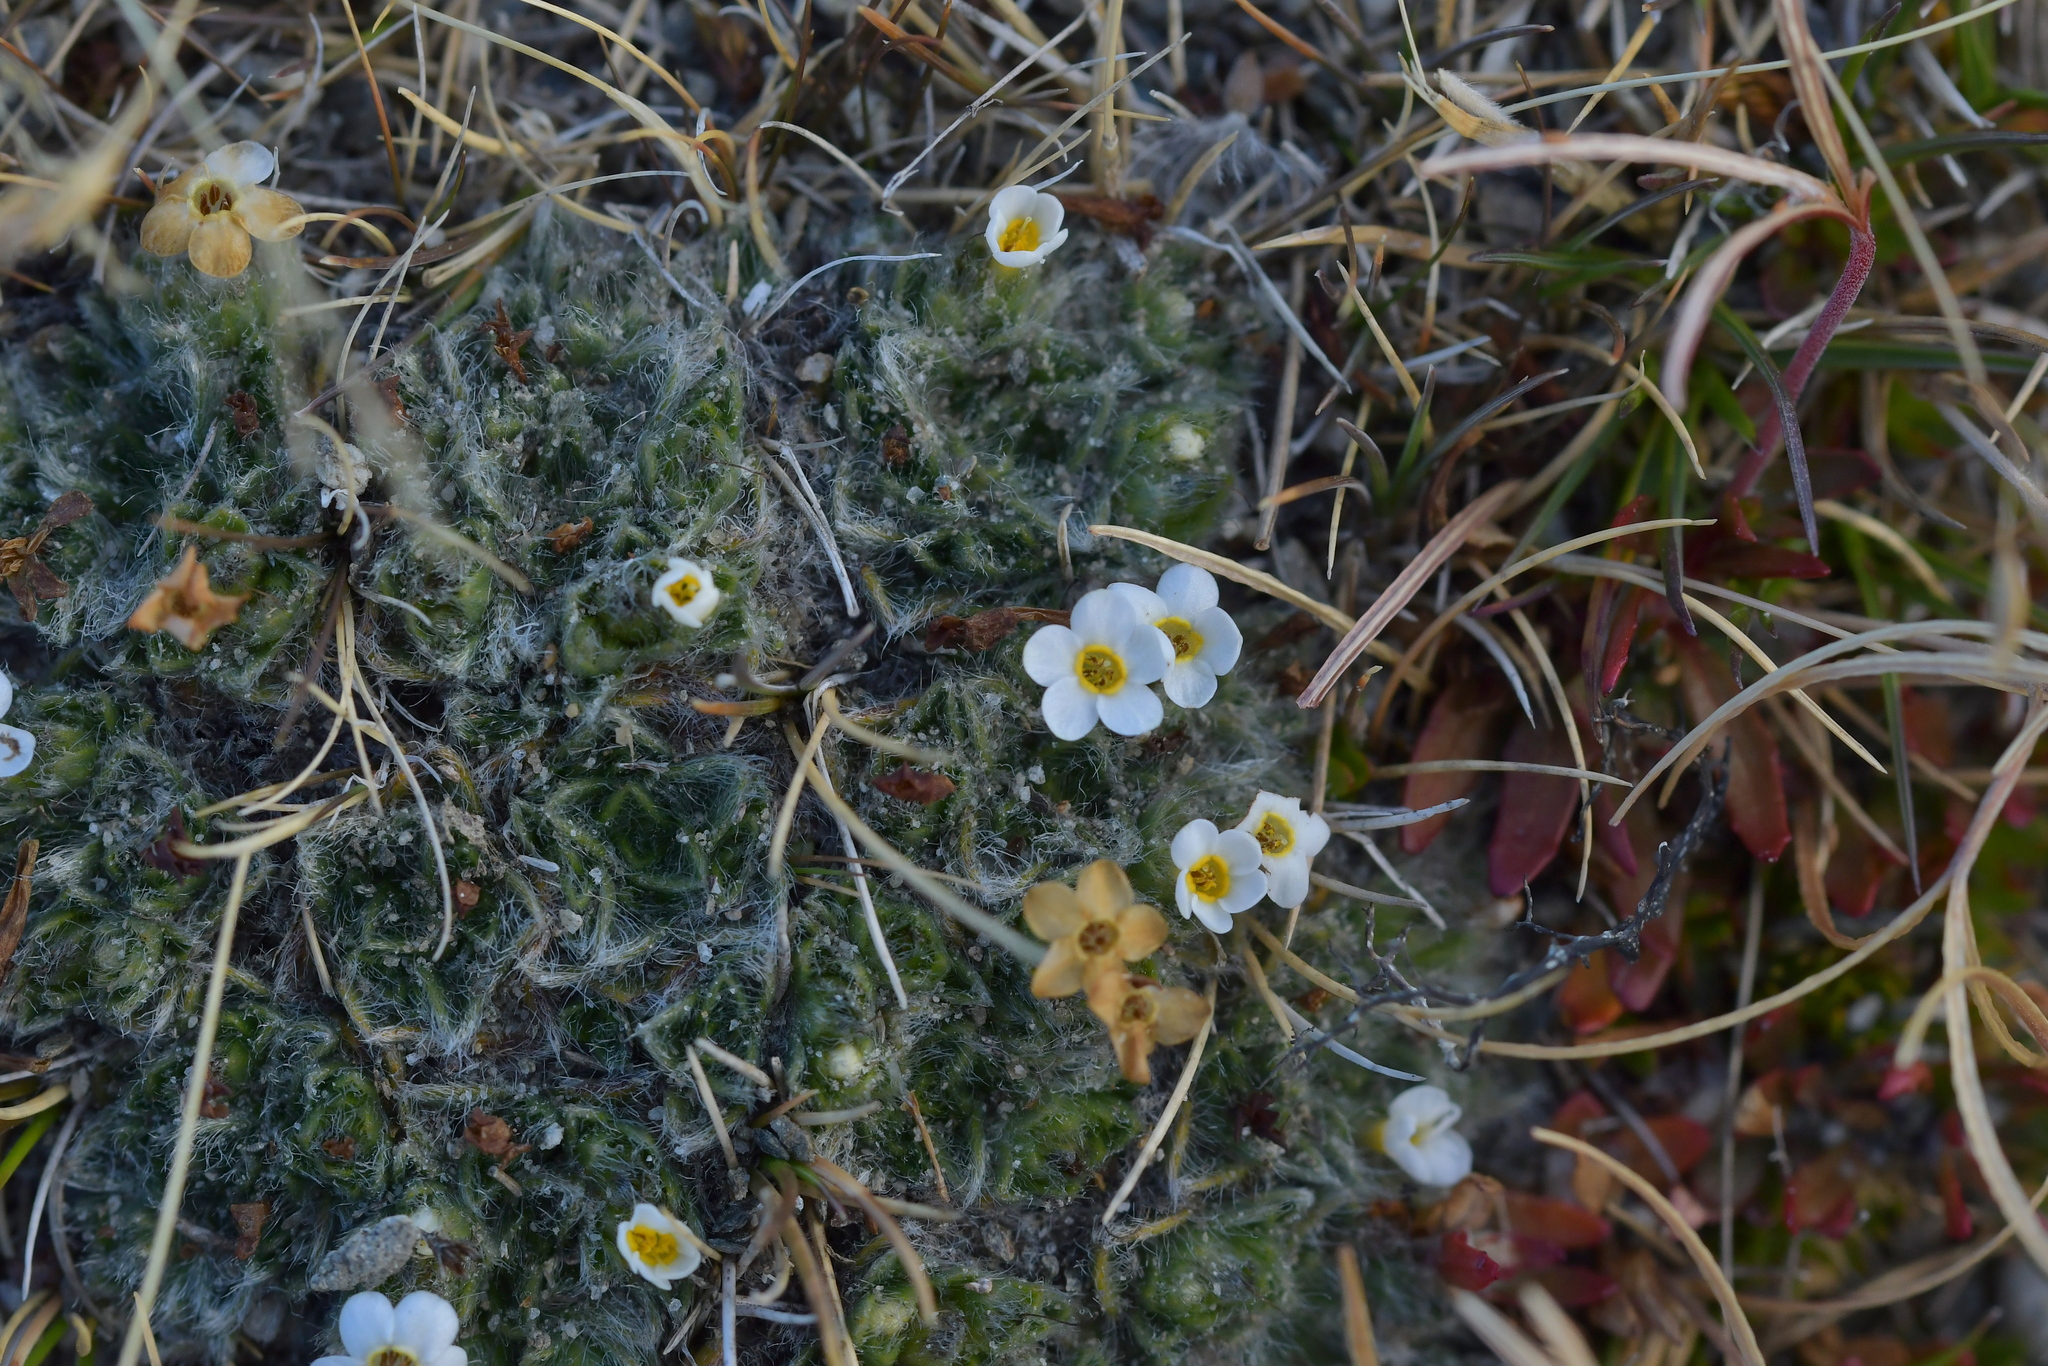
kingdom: Plantae
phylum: Tracheophyta
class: Magnoliopsida
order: Boraginales
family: Boraginaceae
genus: Myosotis
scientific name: Myosotis pulvinaris
